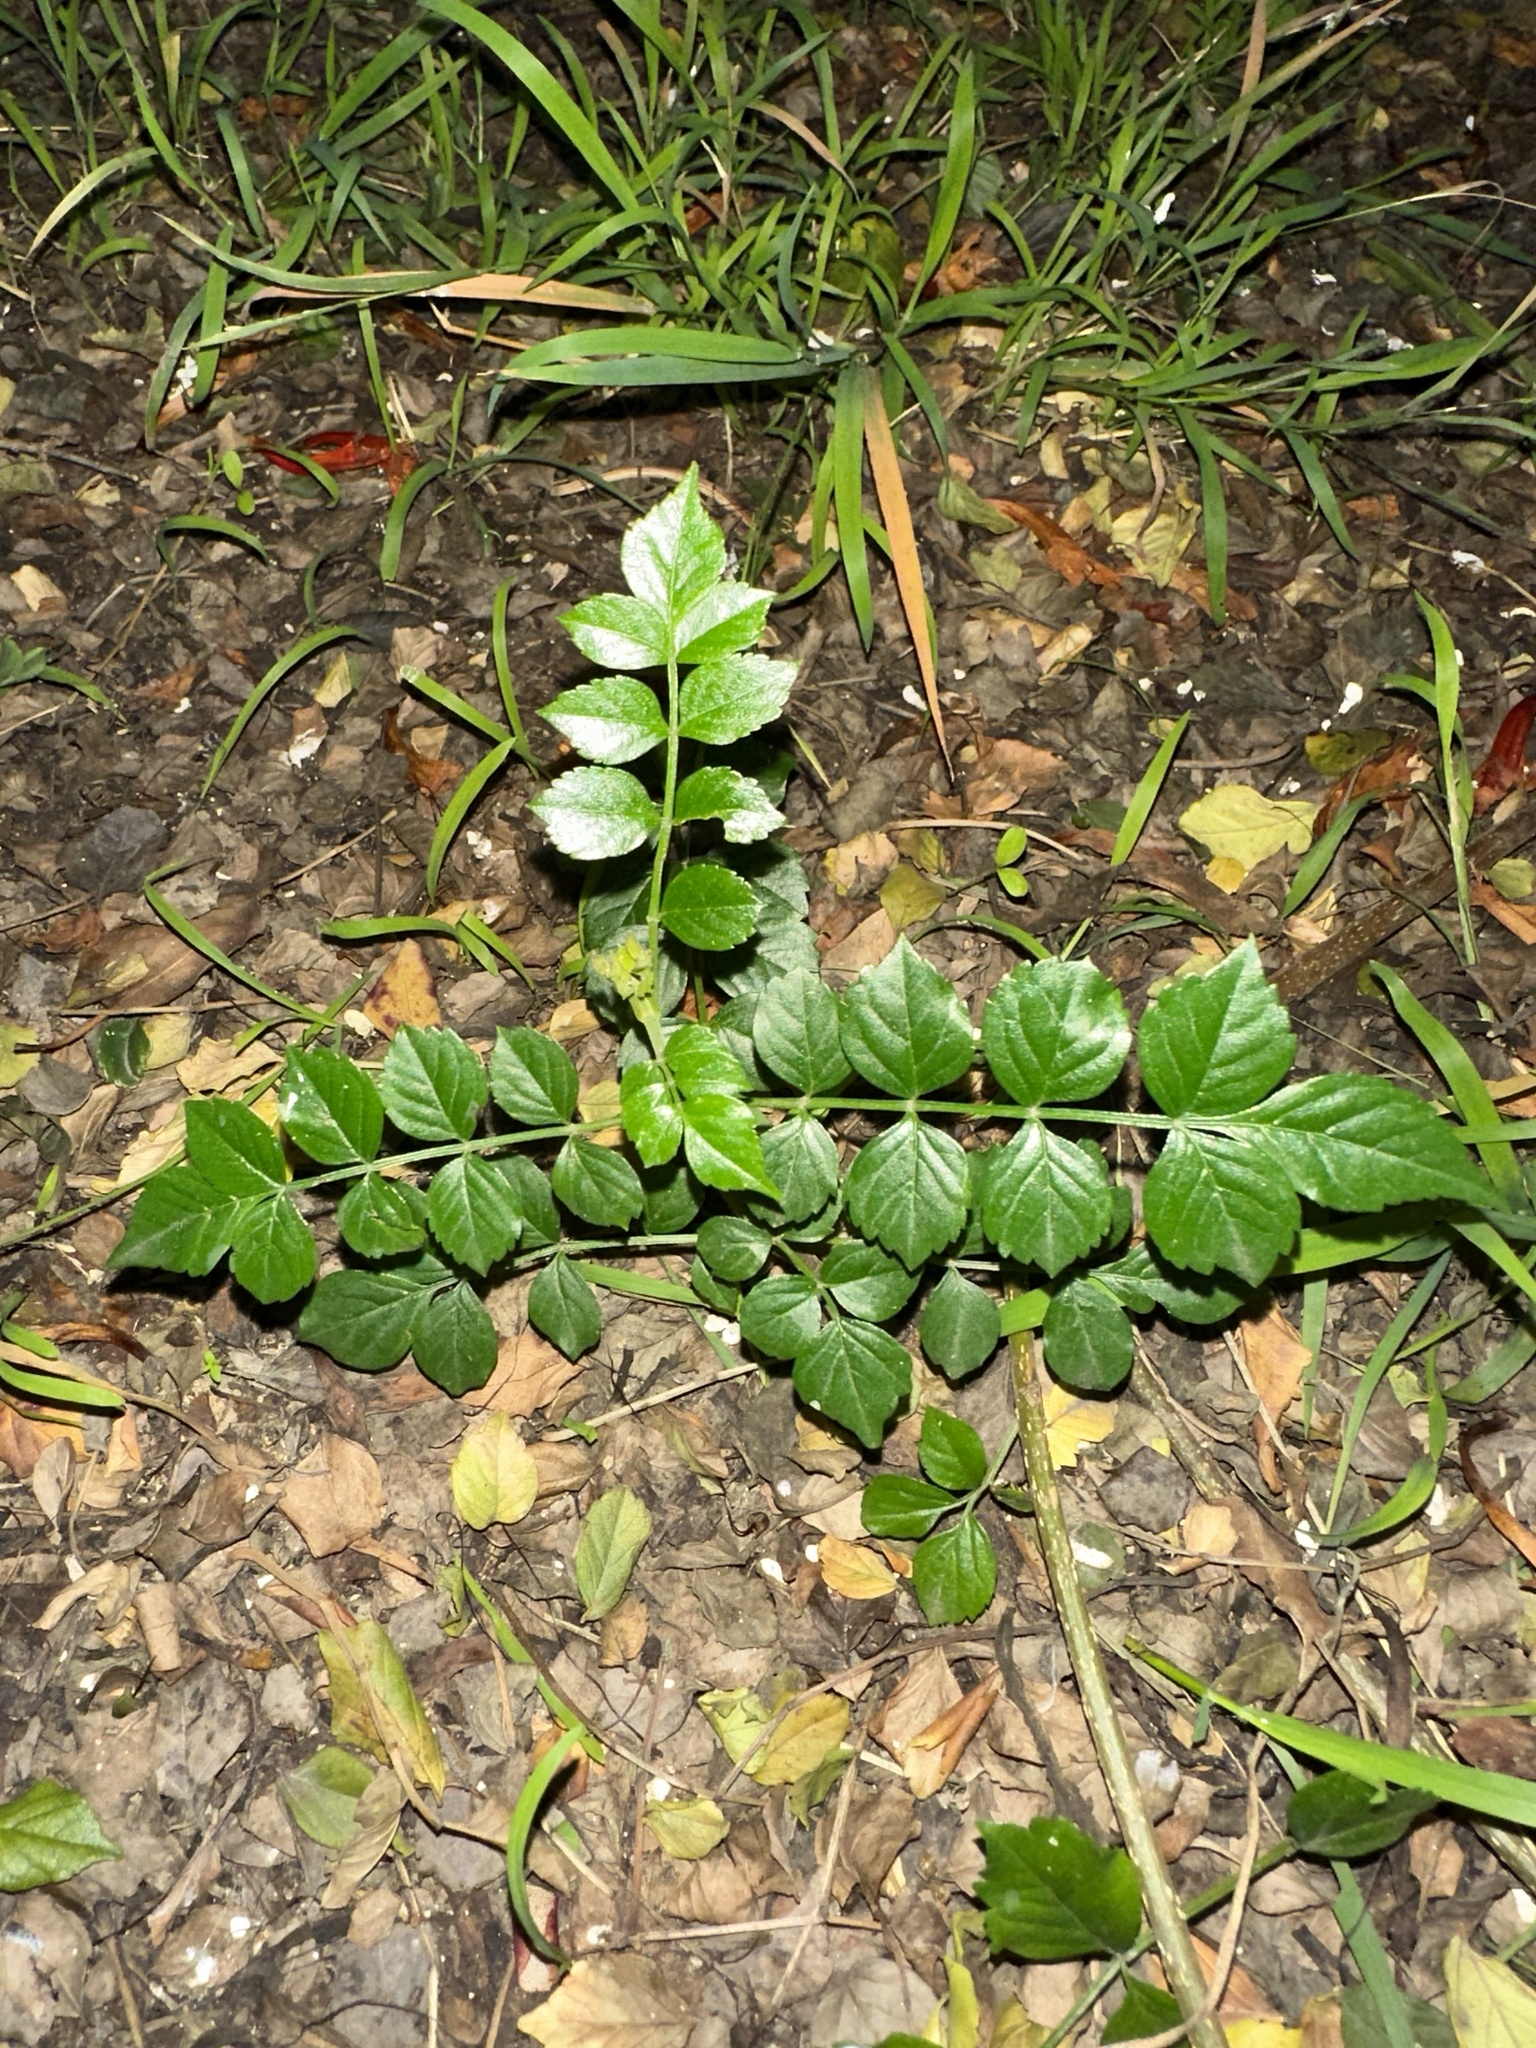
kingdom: Plantae
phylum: Tracheophyta
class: Magnoliopsida
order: Lamiales
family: Bignoniaceae
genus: Tecomaria
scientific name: Tecomaria capensis
